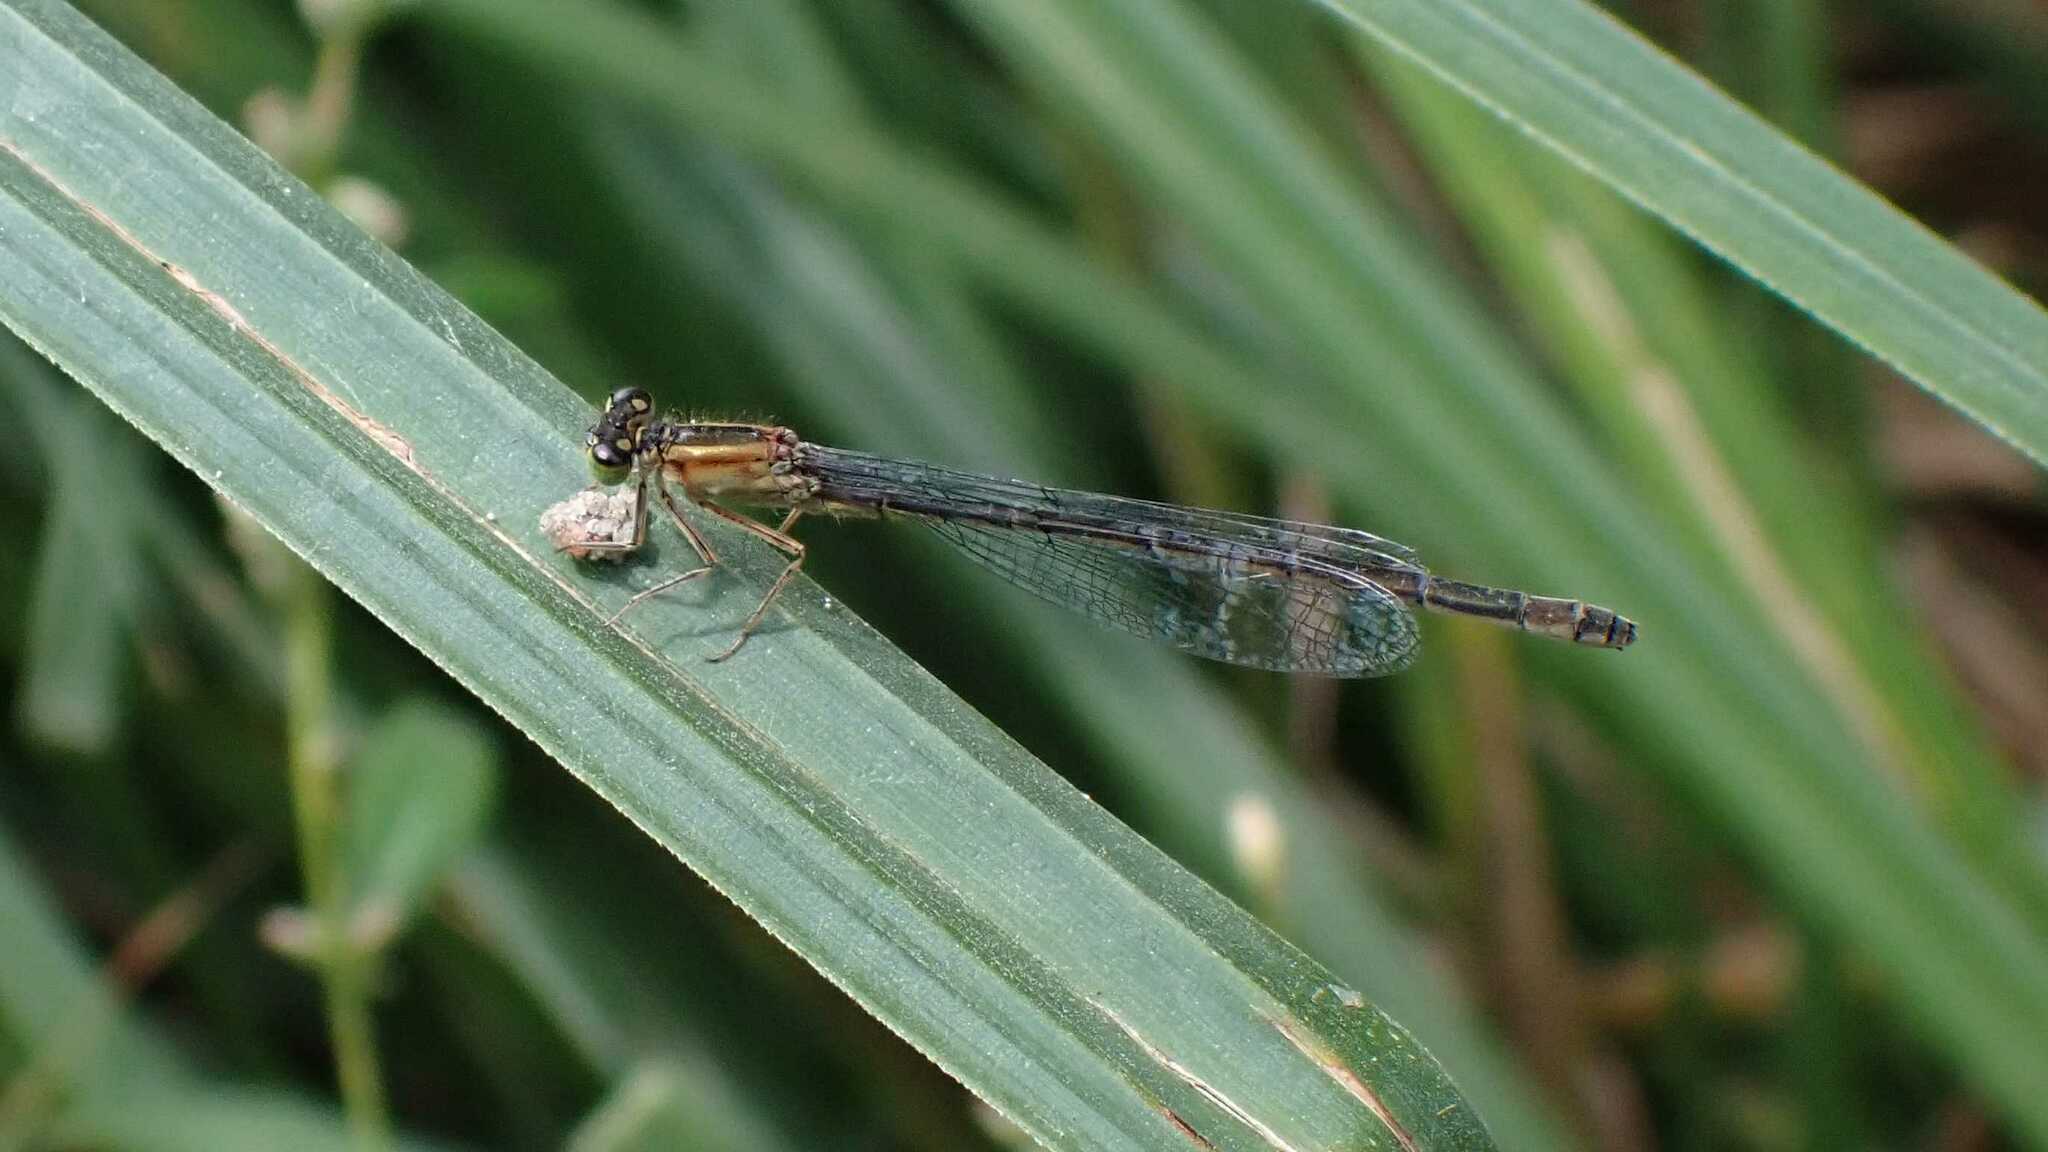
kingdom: Animalia
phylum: Arthropoda
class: Insecta
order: Odonata
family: Coenagrionidae
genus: Ischnura
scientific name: Ischnura elegans
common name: Blue-tailed damselfly
